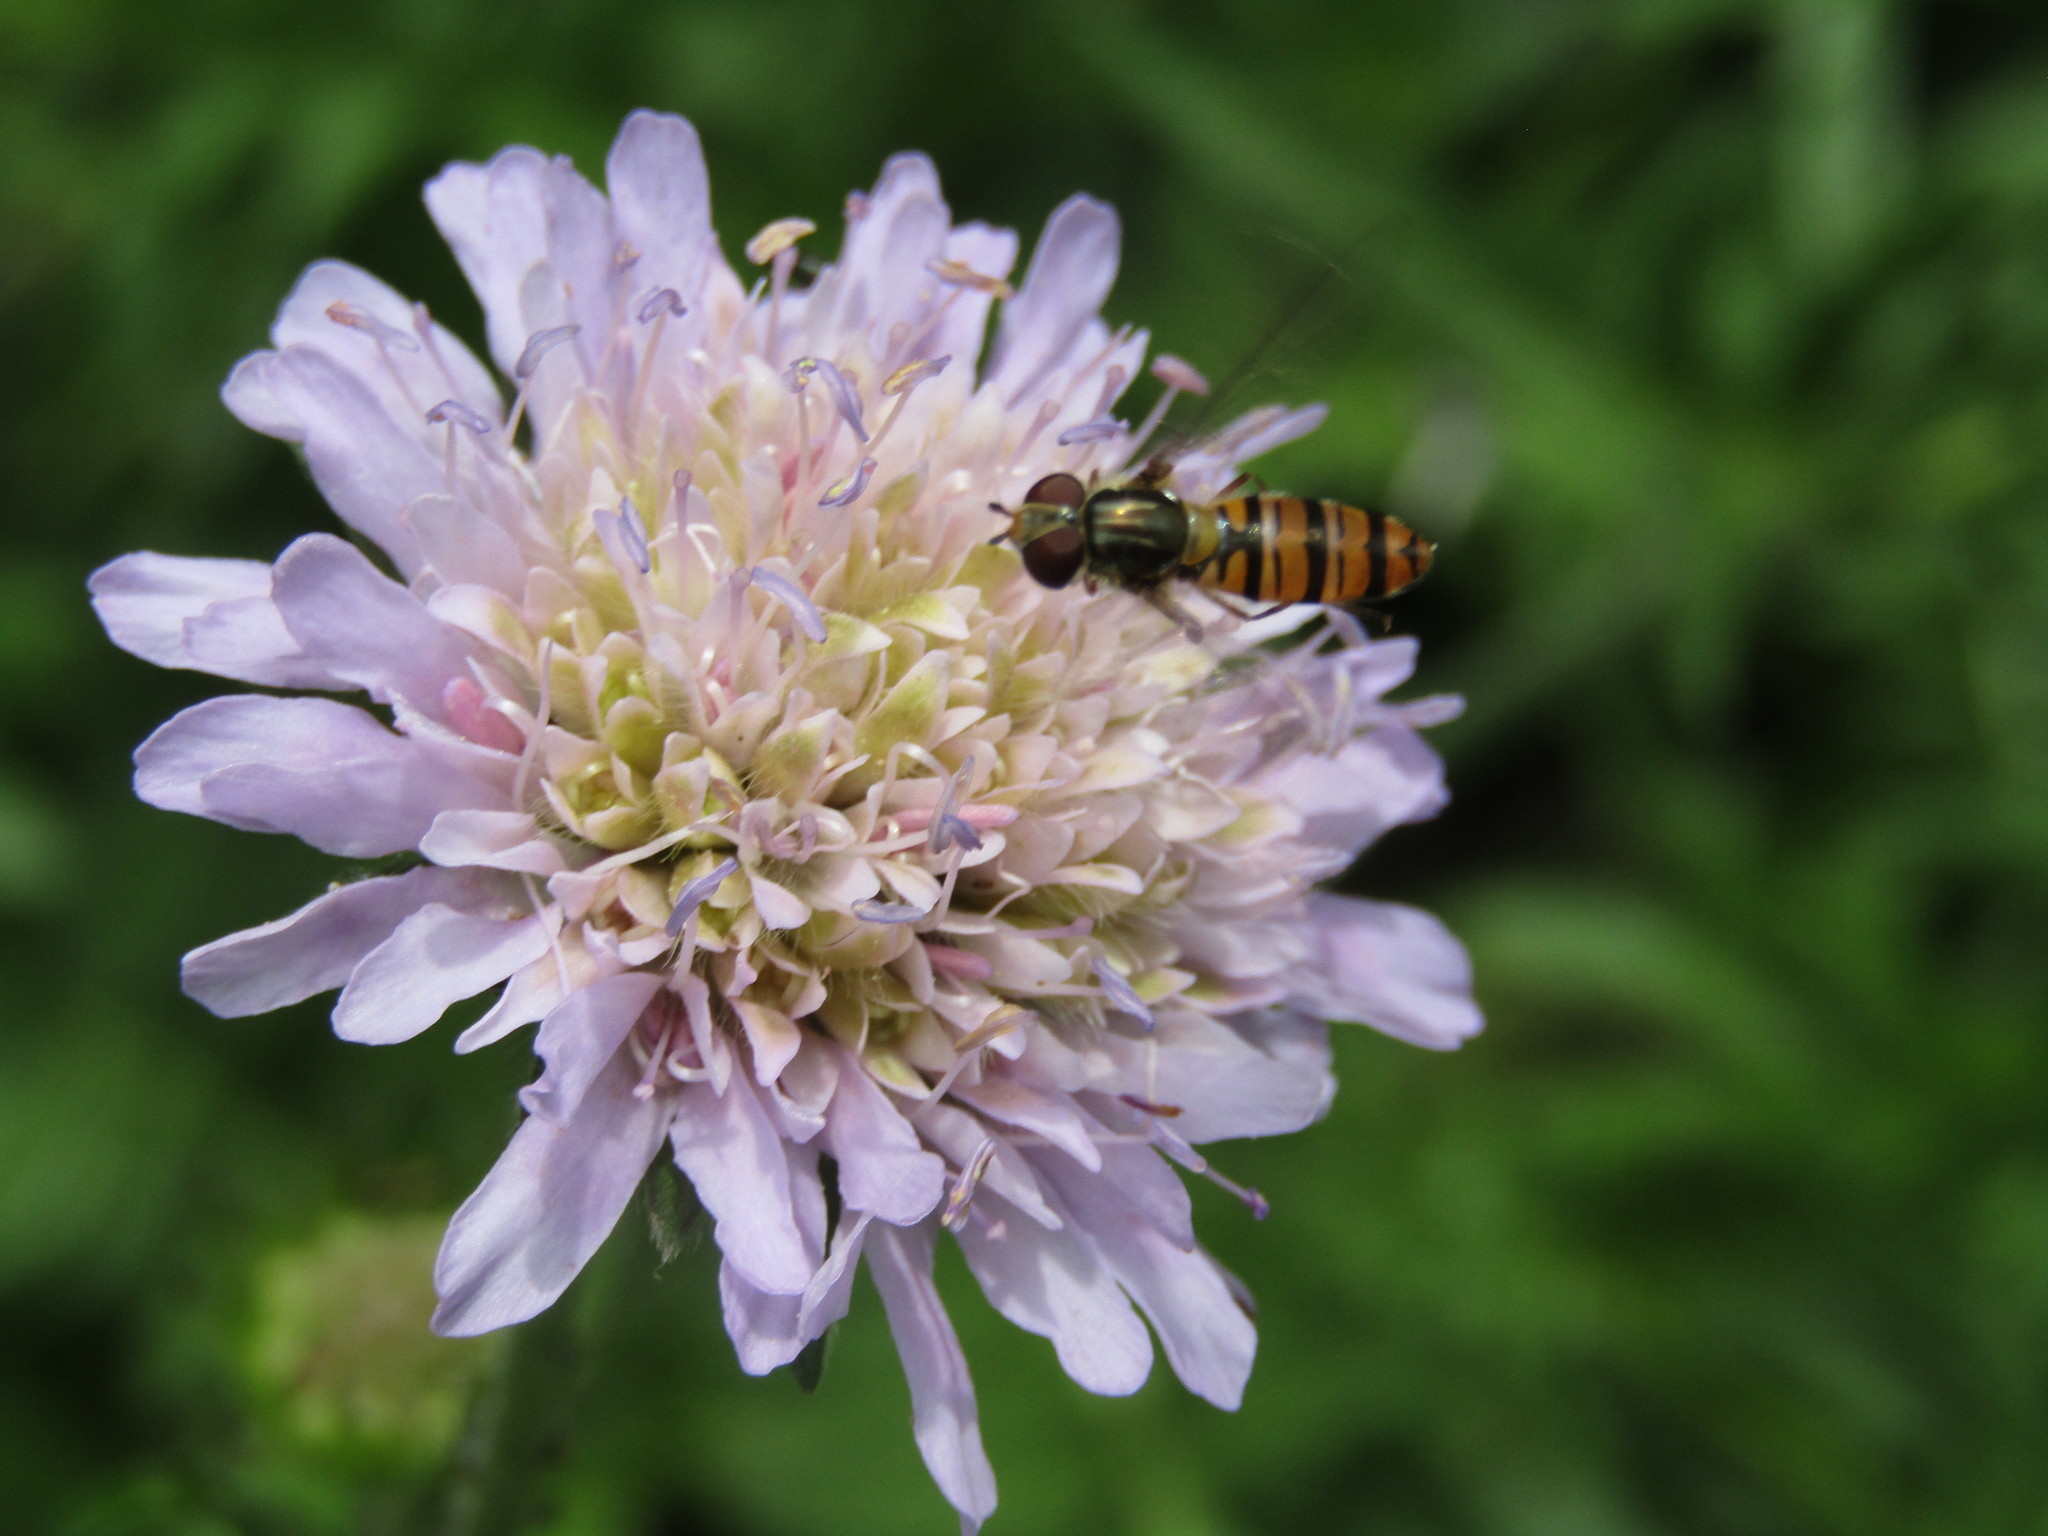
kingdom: Animalia
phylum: Arthropoda
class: Insecta
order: Diptera
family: Syrphidae
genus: Episyrphus
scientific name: Episyrphus balteatus
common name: Marmalade hoverfly
